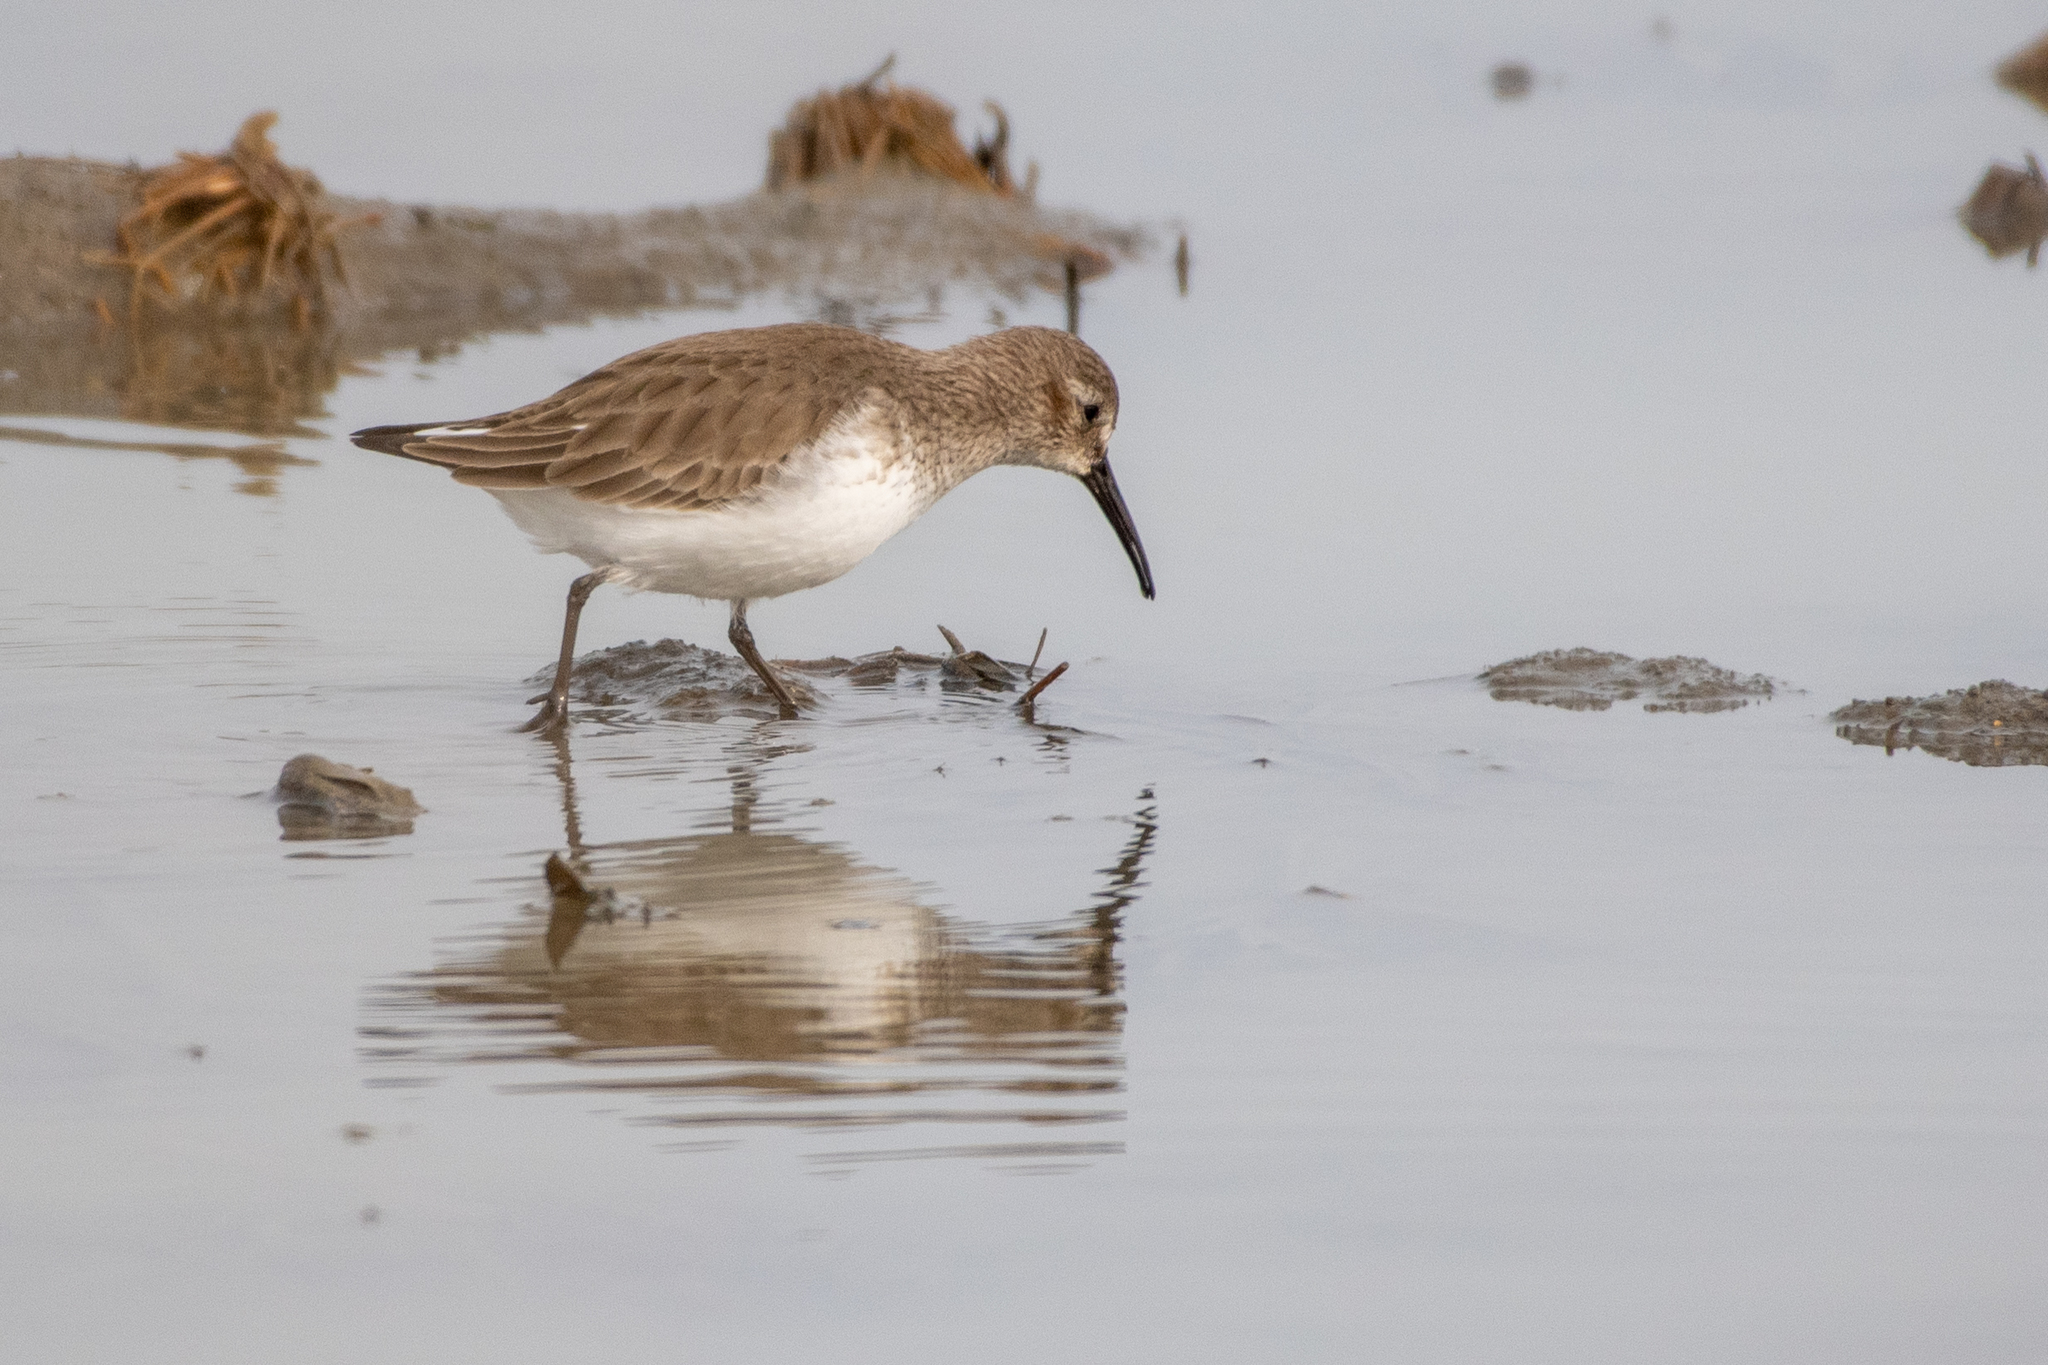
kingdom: Animalia
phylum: Chordata
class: Aves
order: Charadriiformes
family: Scolopacidae
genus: Calidris
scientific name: Calidris alpina
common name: Dunlin
